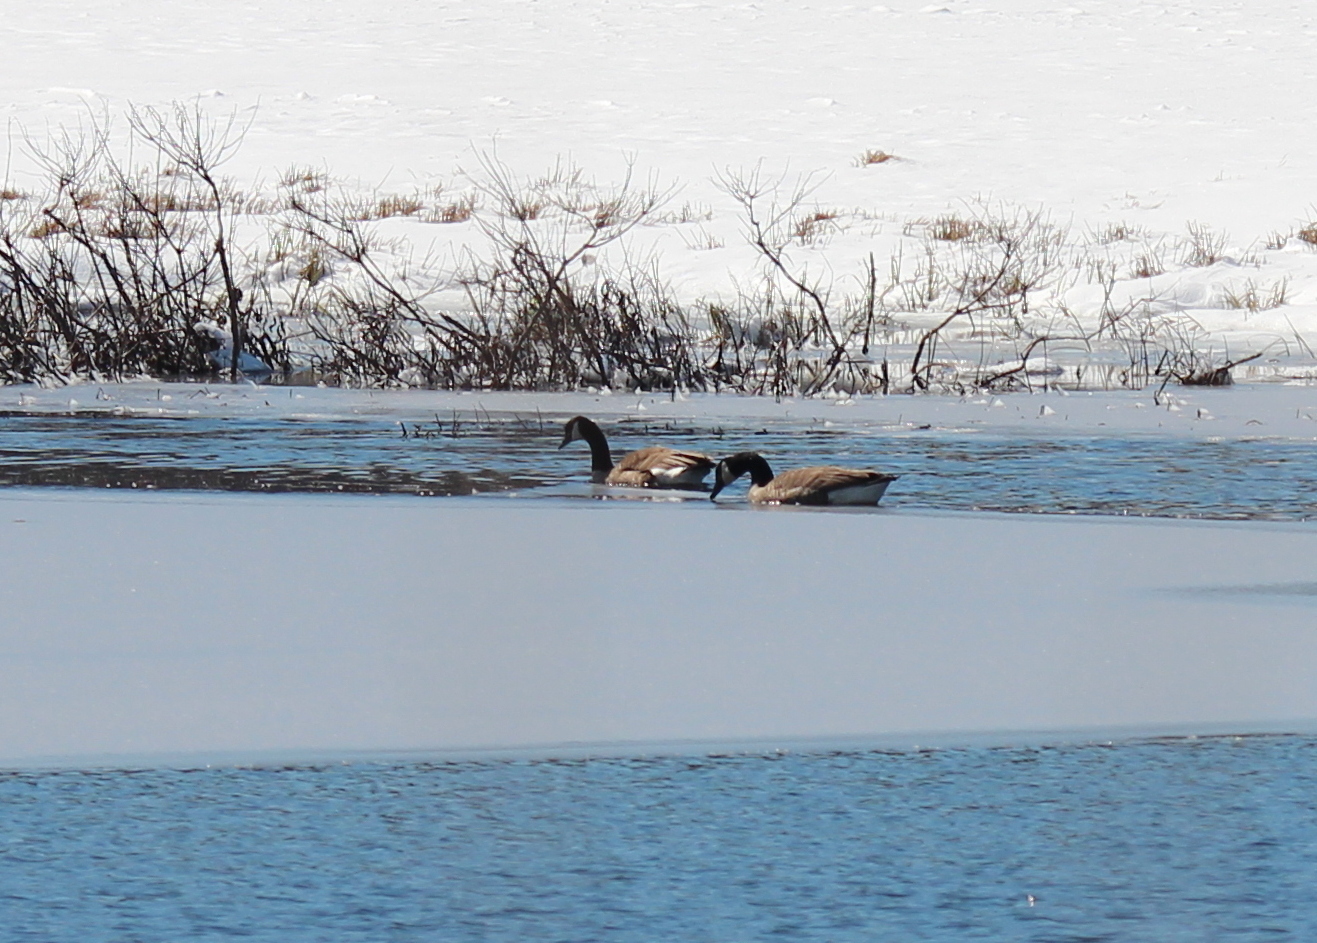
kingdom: Animalia
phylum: Chordata
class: Aves
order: Anseriformes
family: Anatidae
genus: Branta
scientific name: Branta canadensis
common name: Canada goose
